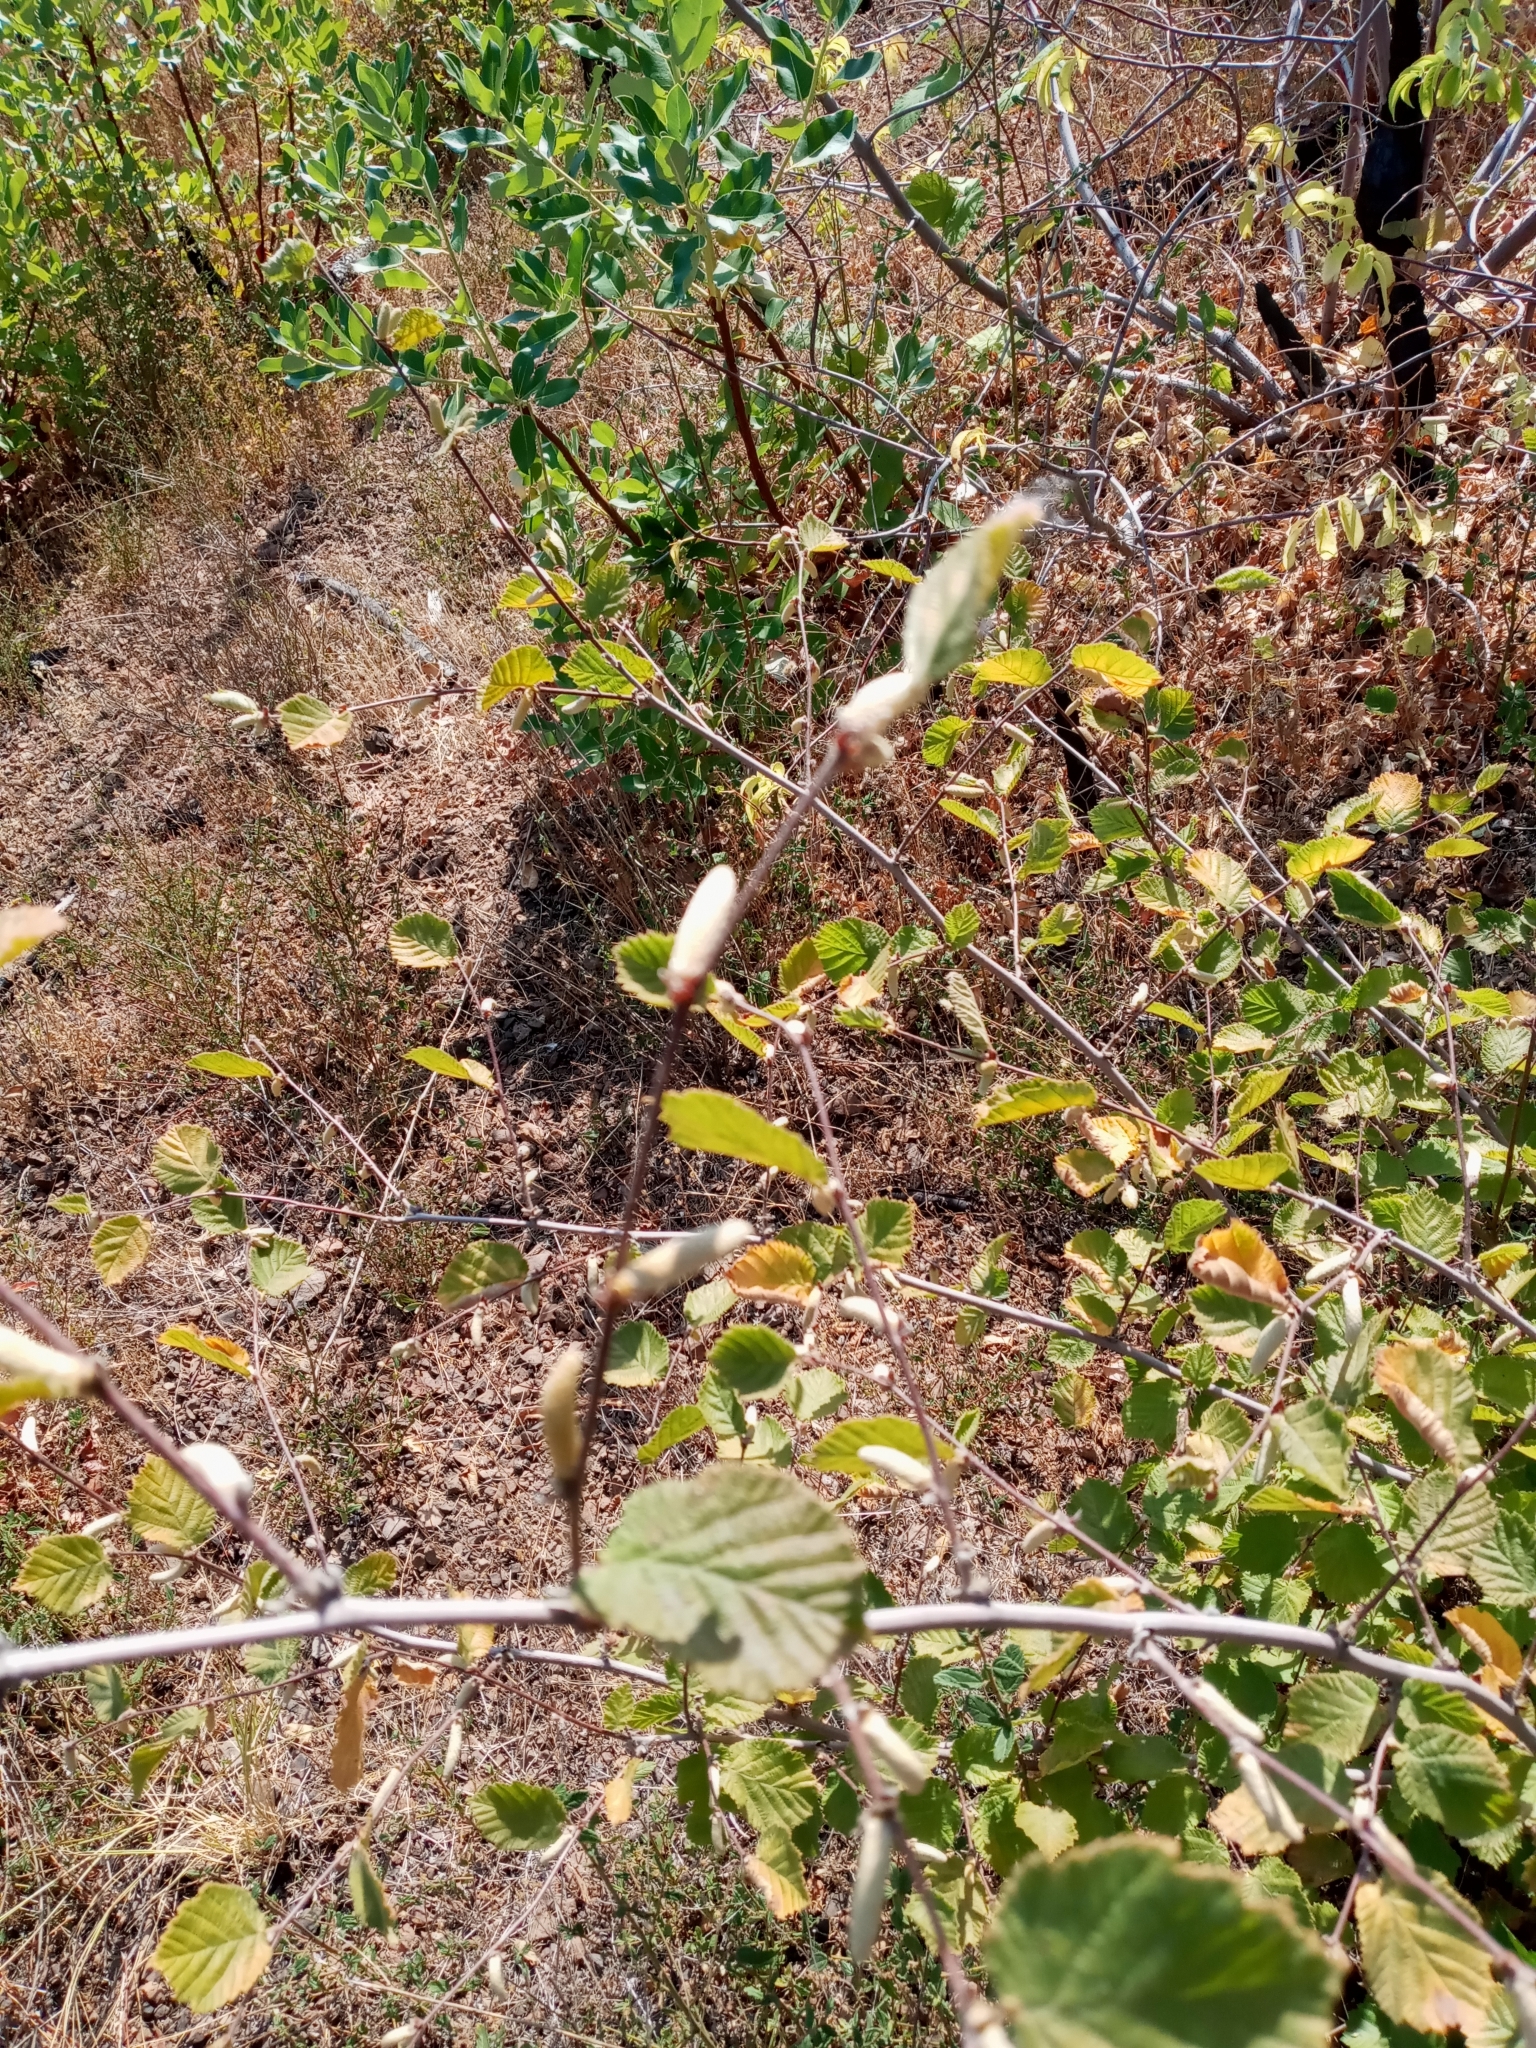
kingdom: Plantae
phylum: Tracheophyta
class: Magnoliopsida
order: Fagales
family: Betulaceae
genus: Corylus
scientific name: Corylus cornuta
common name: Beaked hazel
